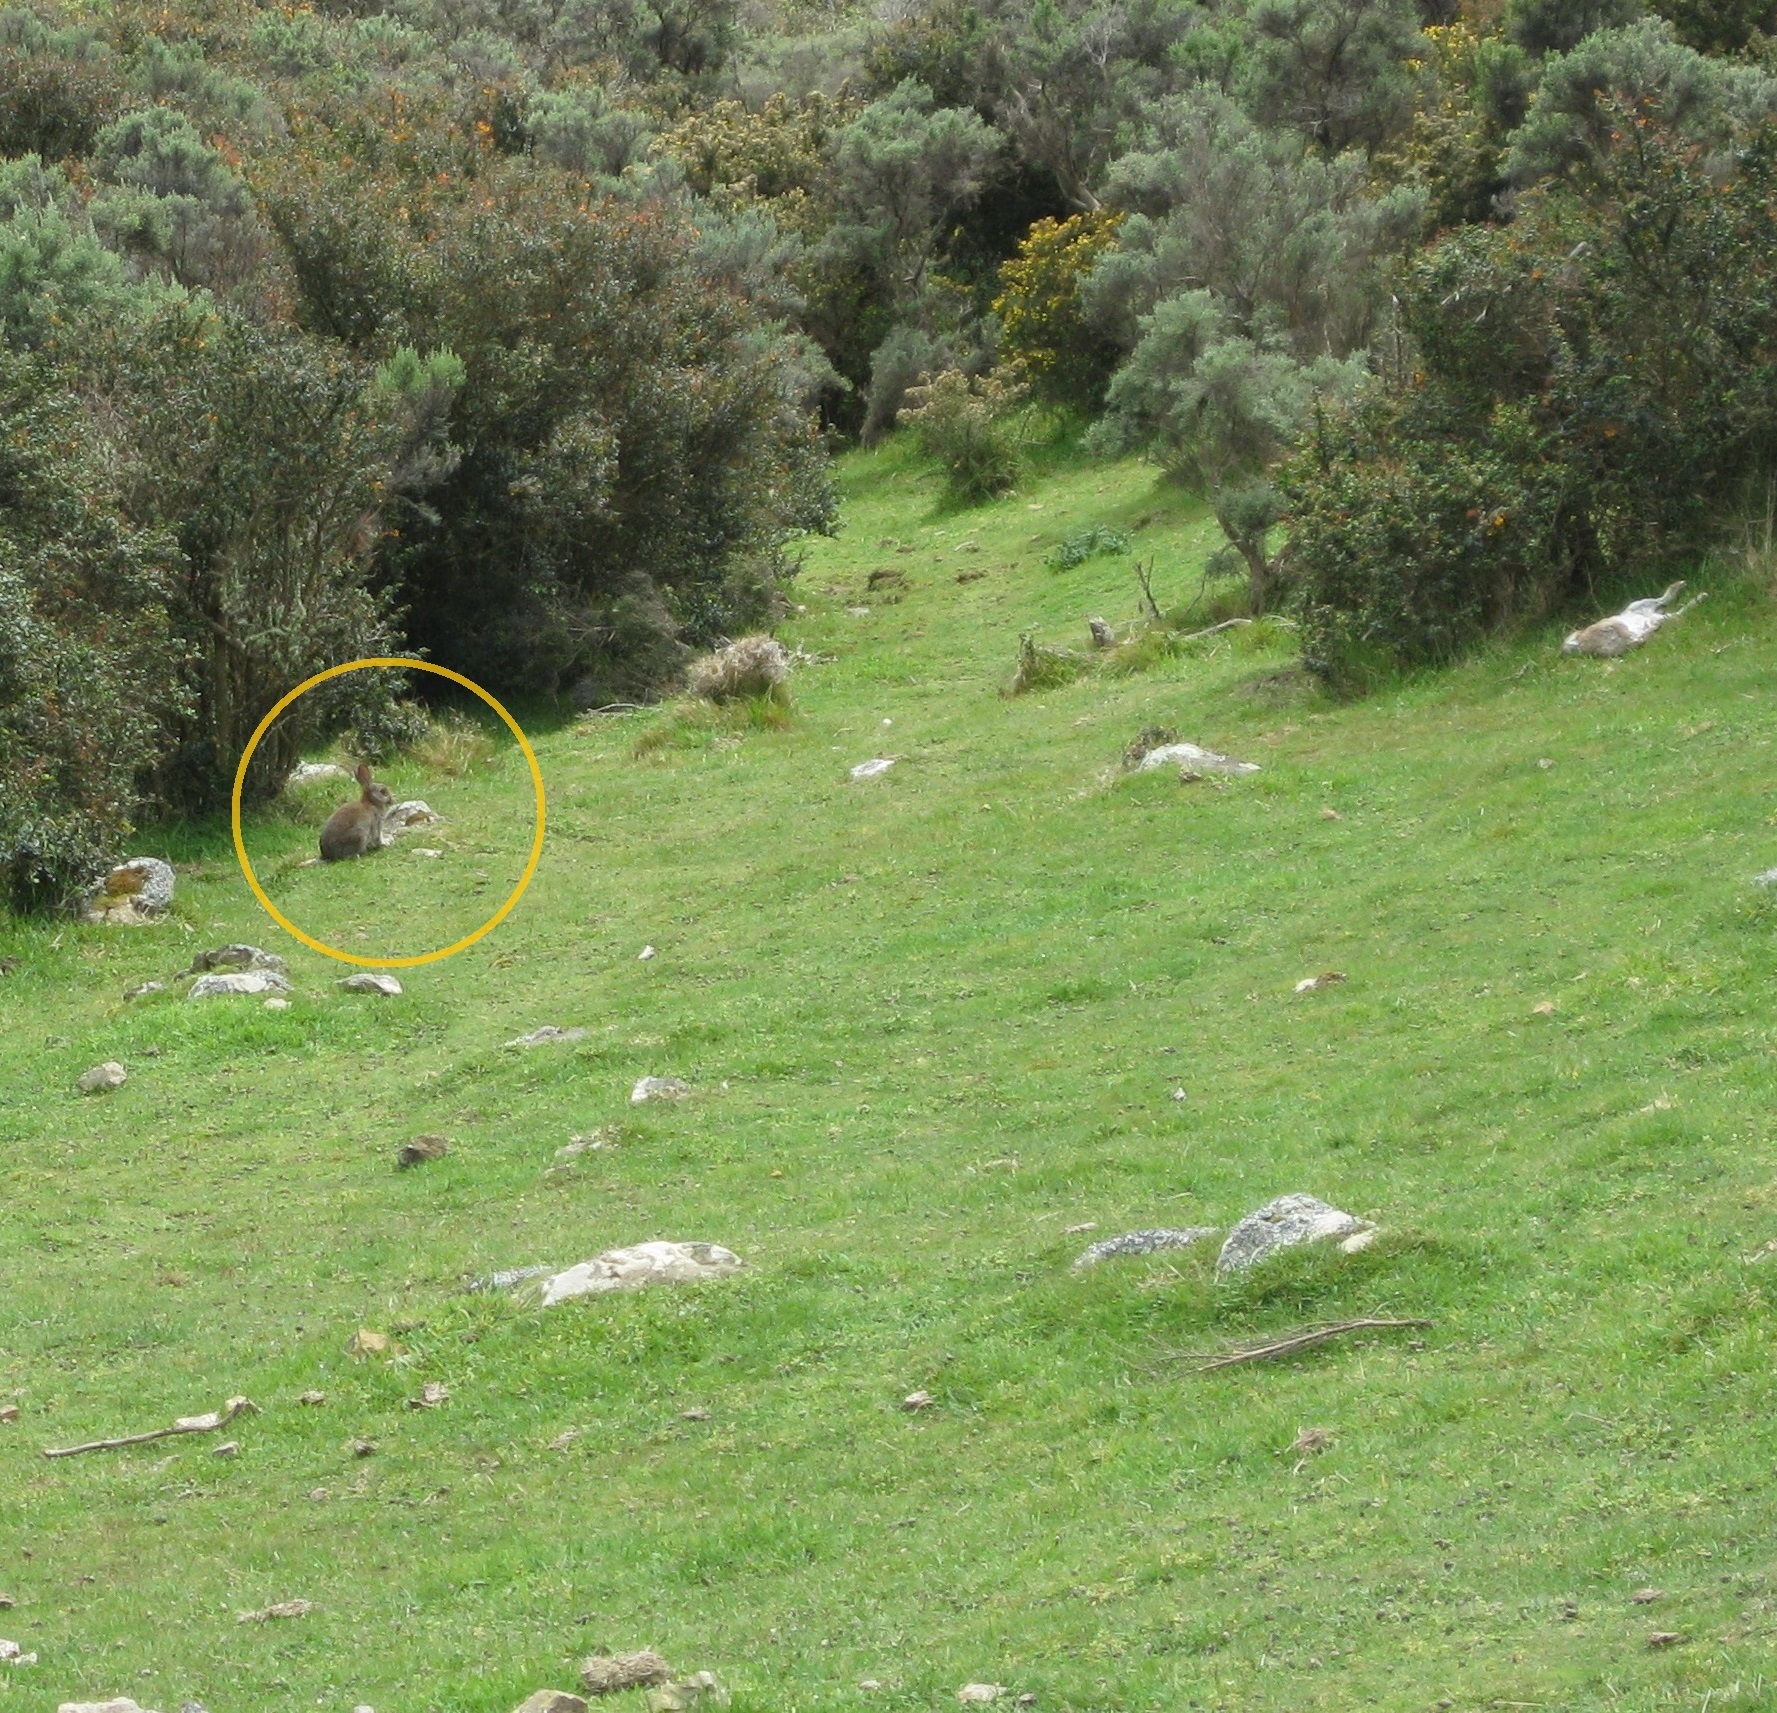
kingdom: Animalia
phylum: Chordata
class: Mammalia
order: Lagomorpha
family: Leporidae
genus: Oryctolagus
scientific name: Oryctolagus cuniculus
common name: European rabbit
